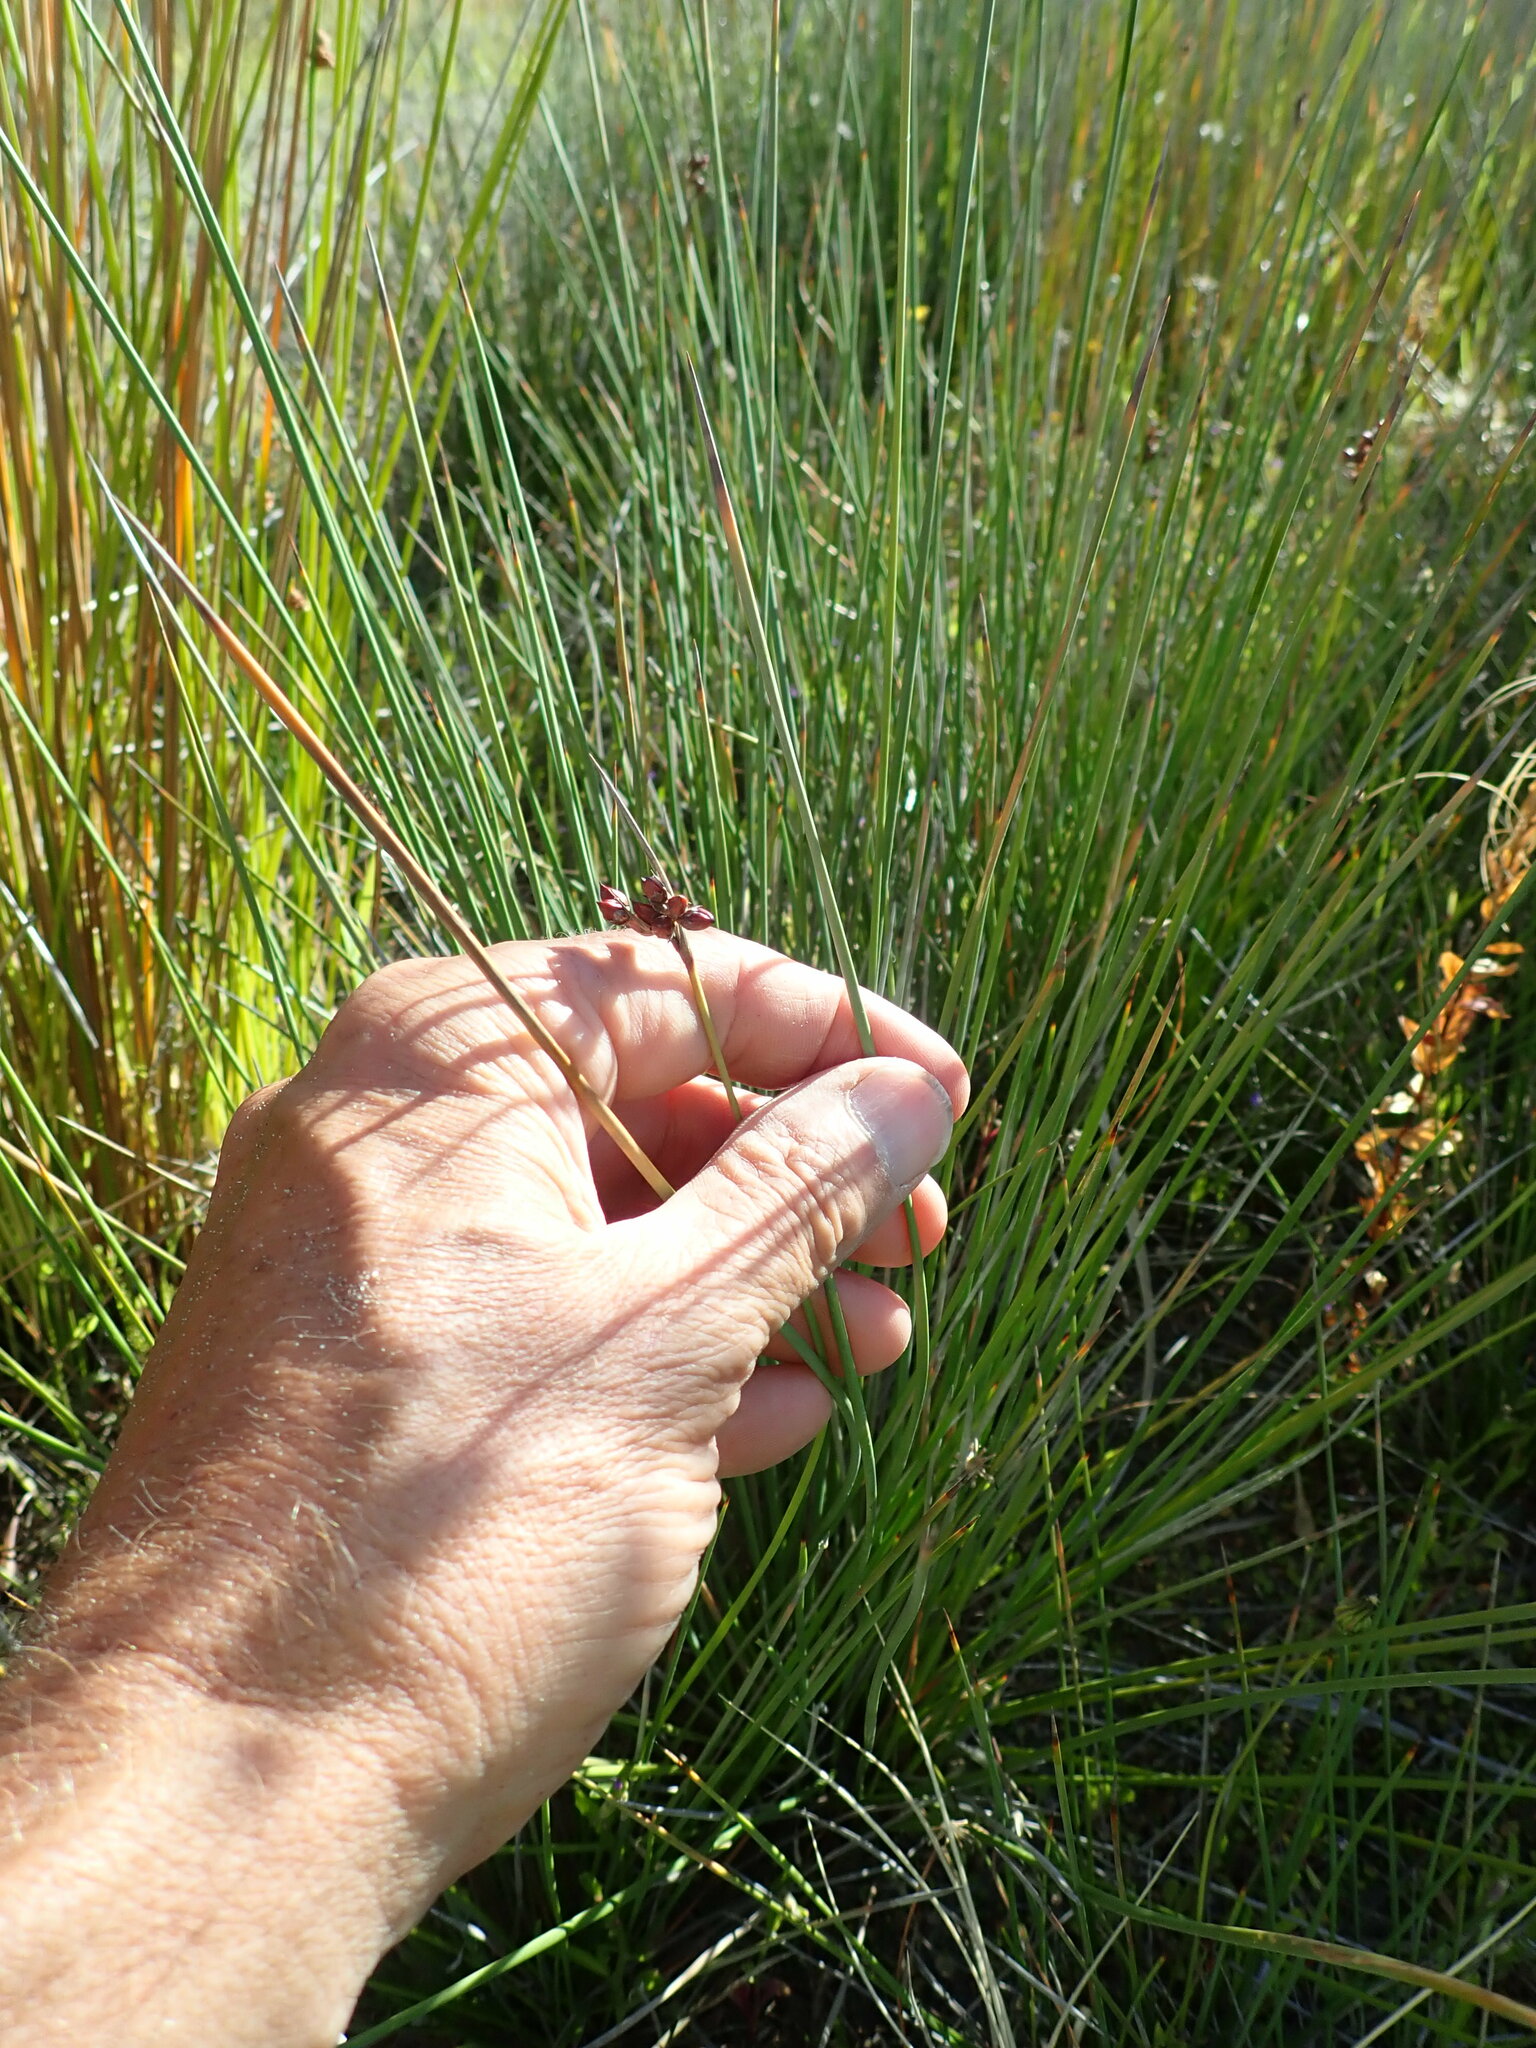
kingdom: Plantae
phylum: Tracheophyta
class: Liliopsida
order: Poales
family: Juncaceae
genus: Juncus
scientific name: Juncus acutus
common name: Sharp rush
